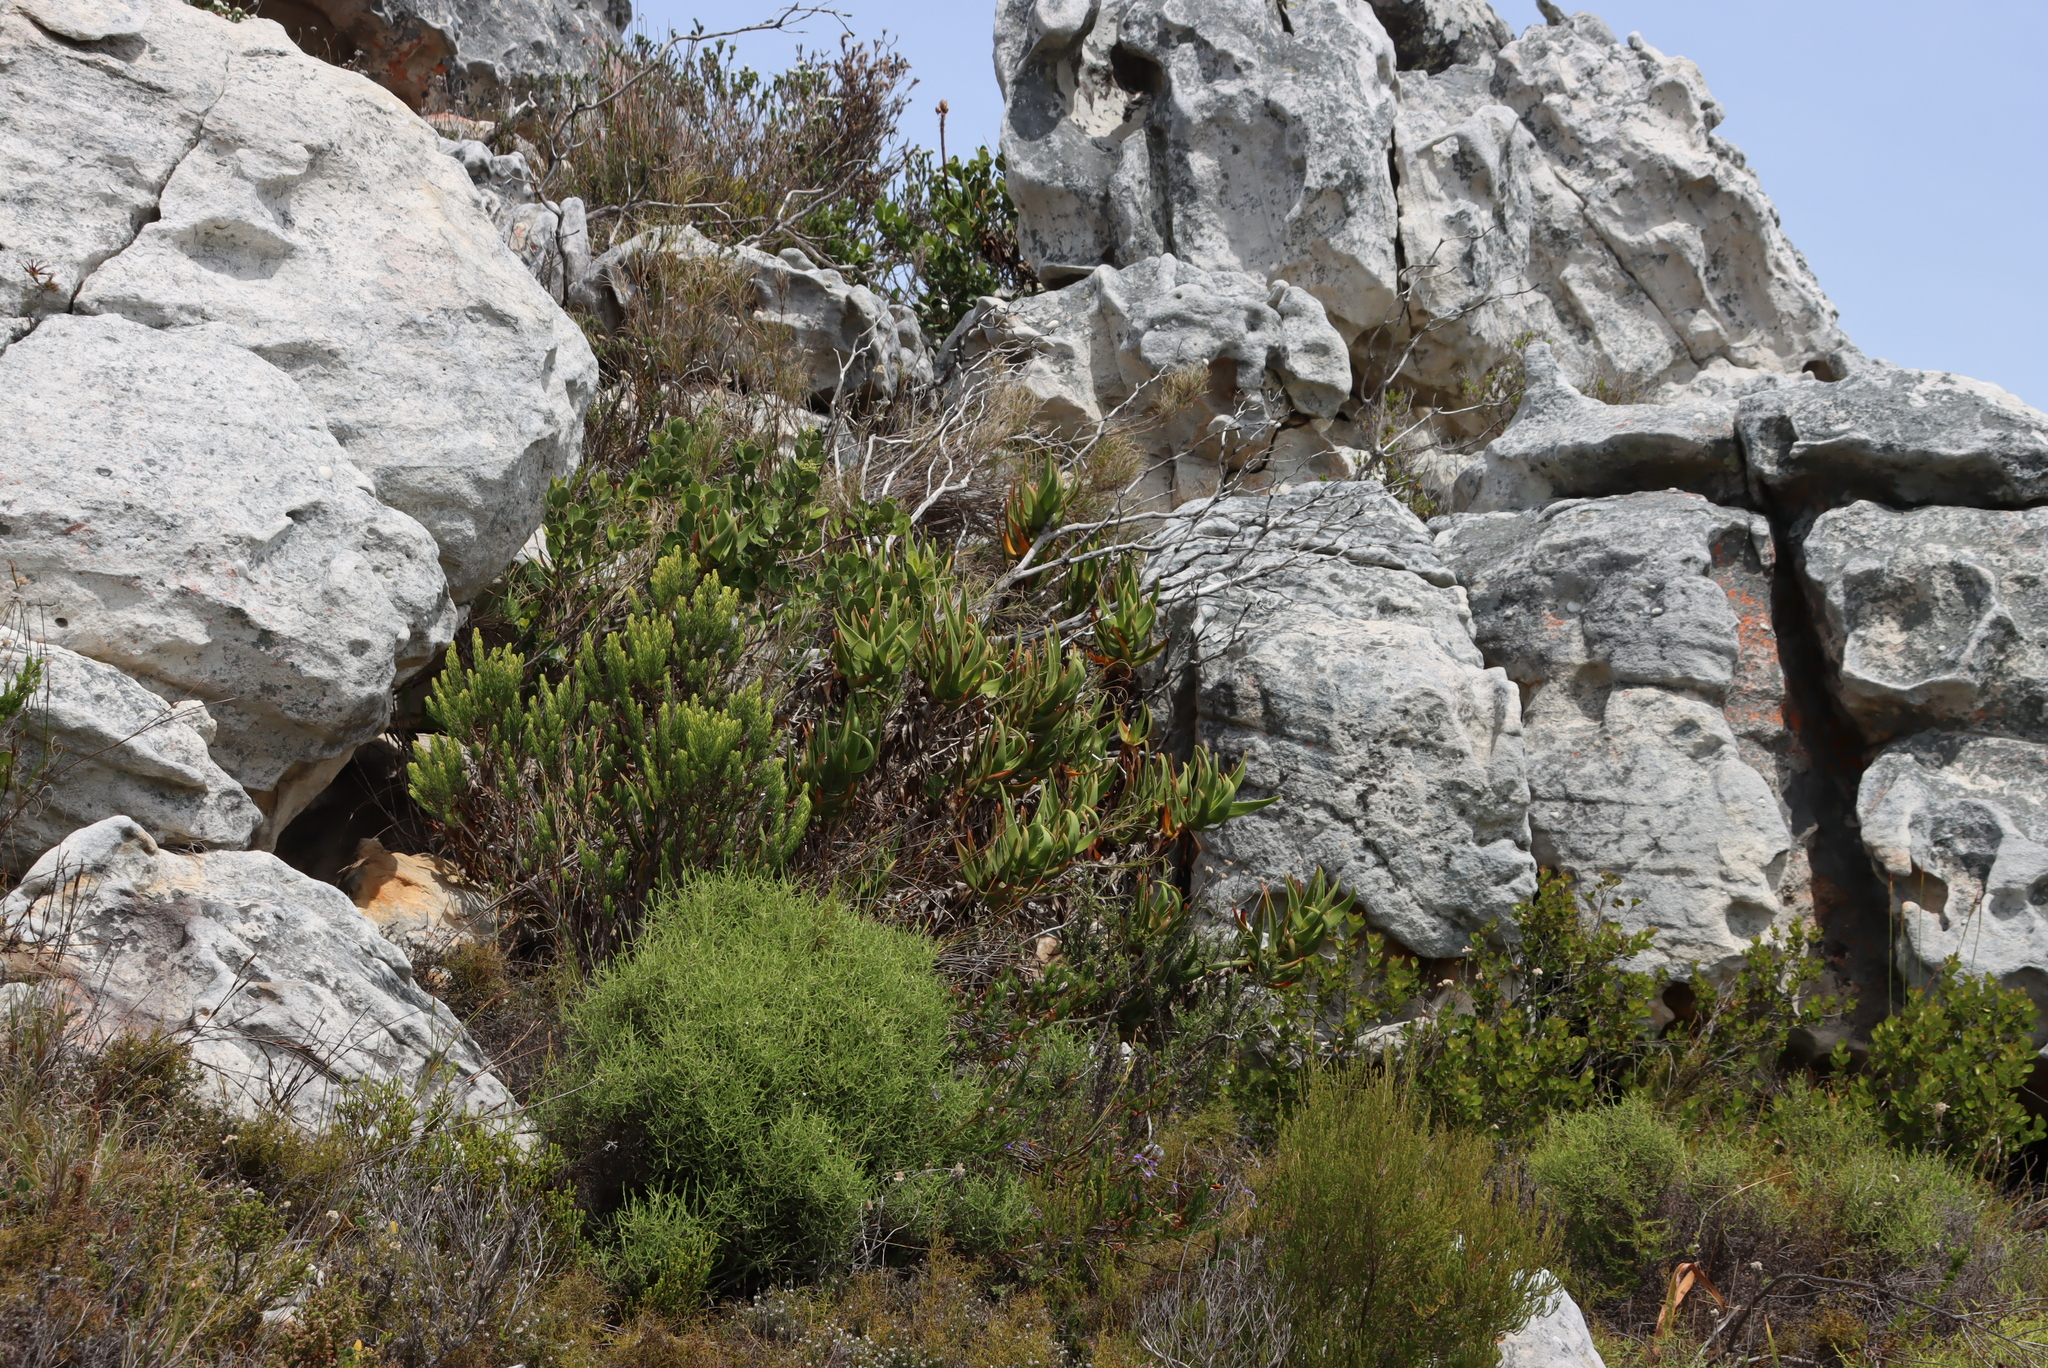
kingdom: Plantae
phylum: Tracheophyta
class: Liliopsida
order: Asparagales
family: Asphodelaceae
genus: Aloiampelos
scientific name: Aloiampelos commixta
